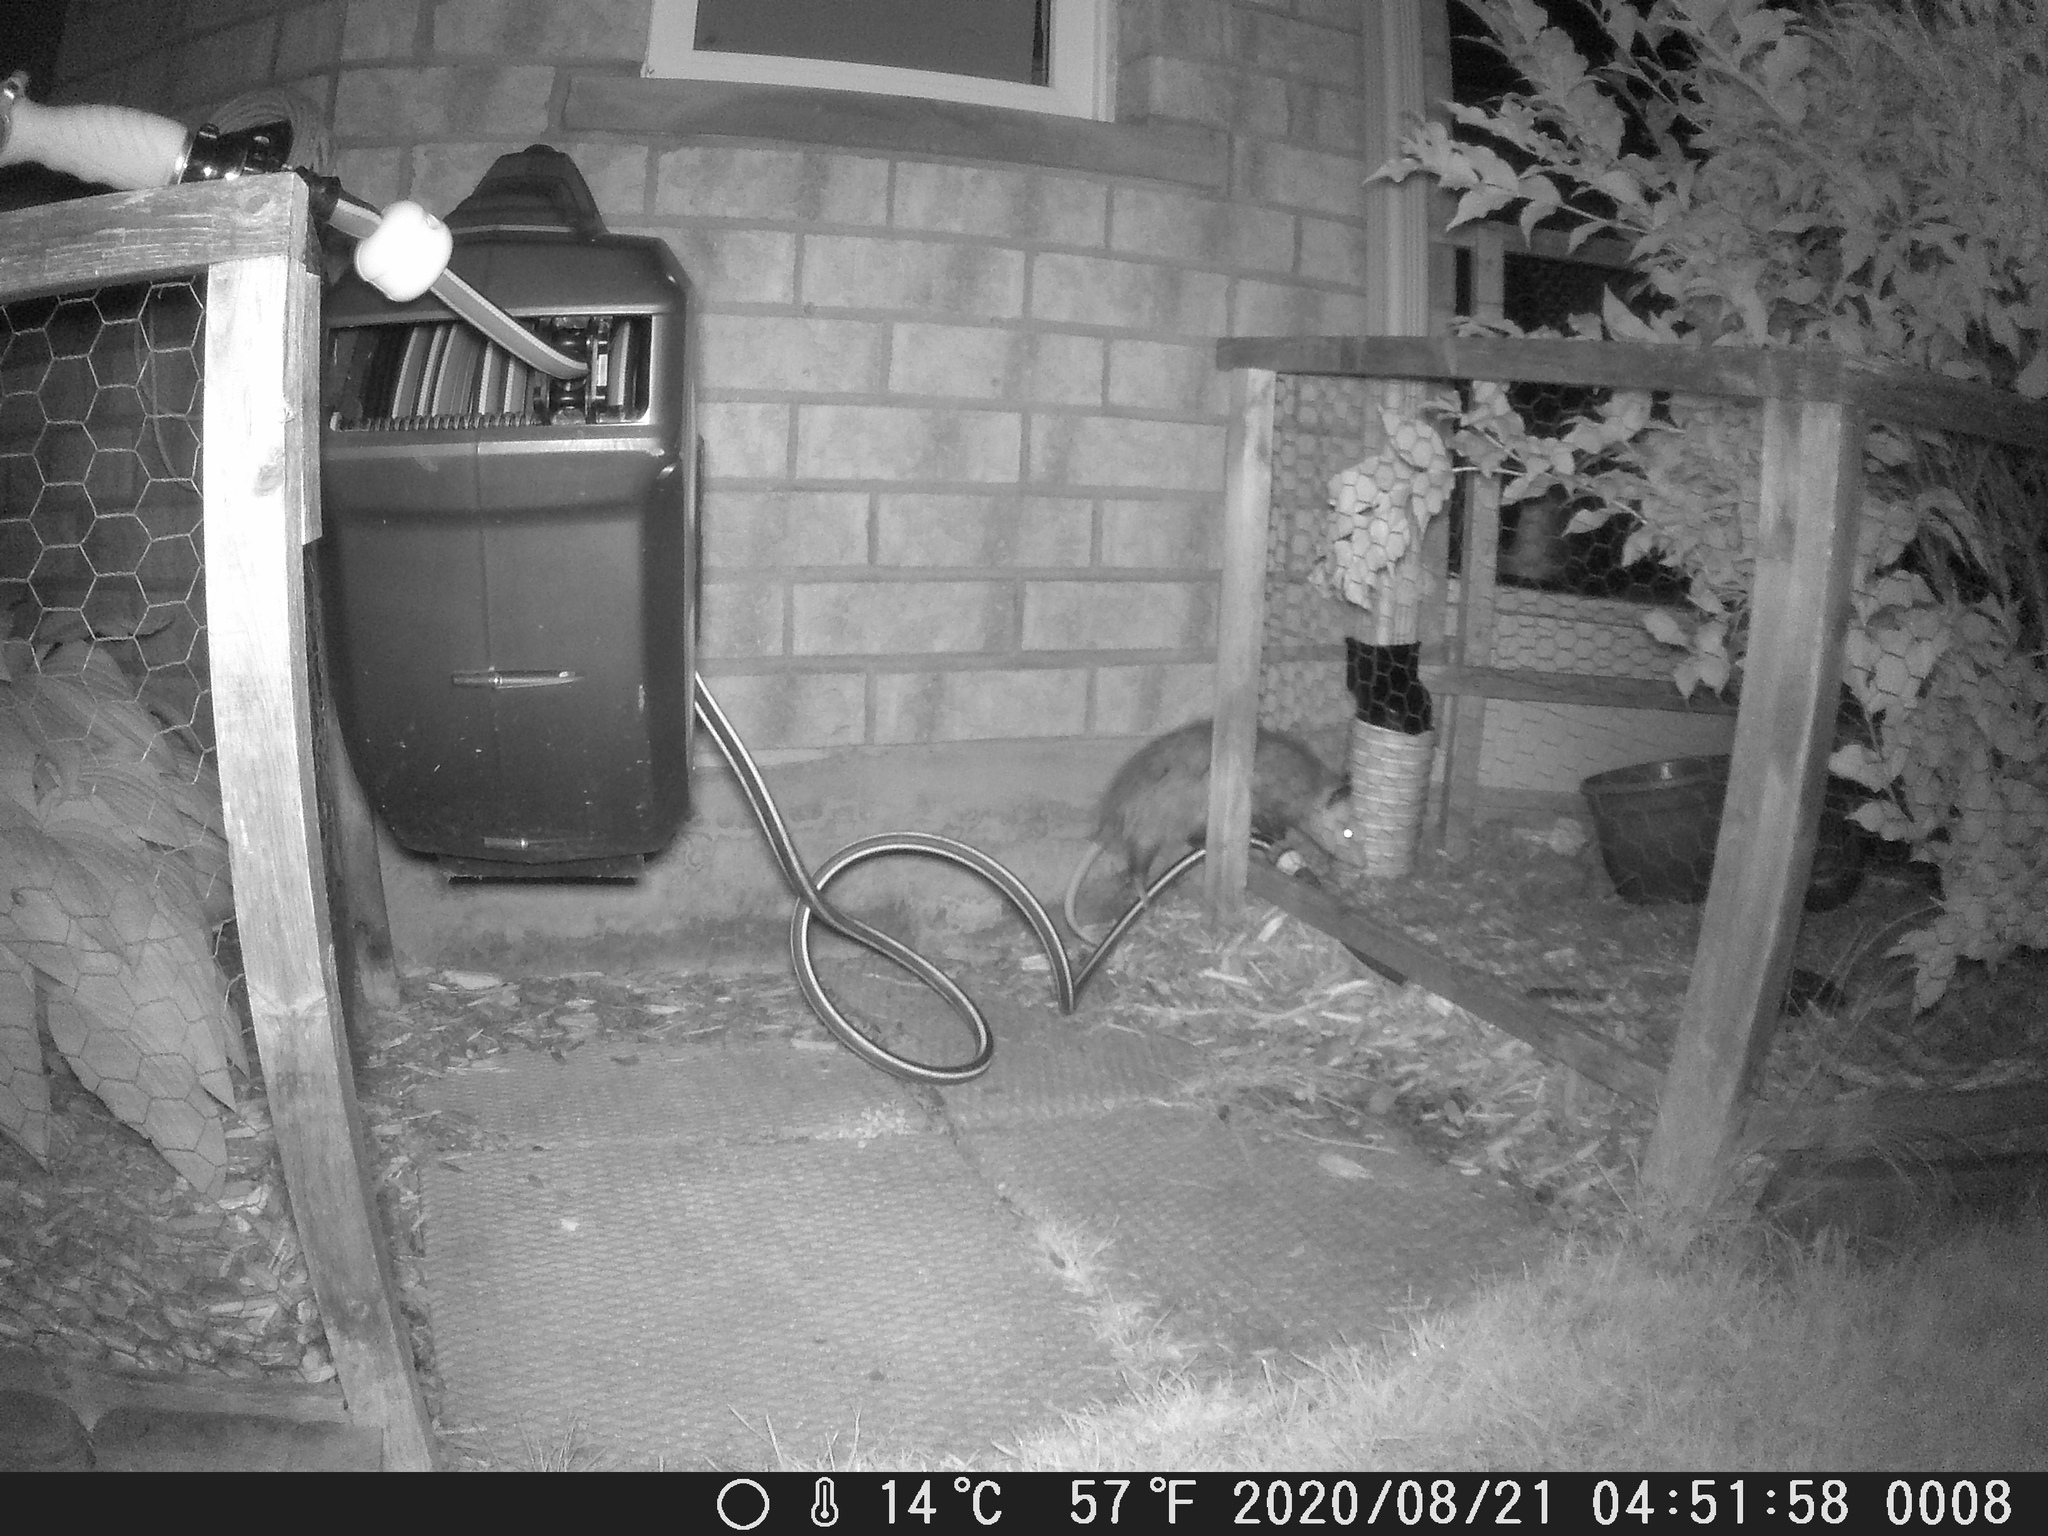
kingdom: Animalia
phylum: Chordata
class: Mammalia
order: Didelphimorphia
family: Didelphidae
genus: Didelphis
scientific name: Didelphis virginiana
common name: Virginia opossum
